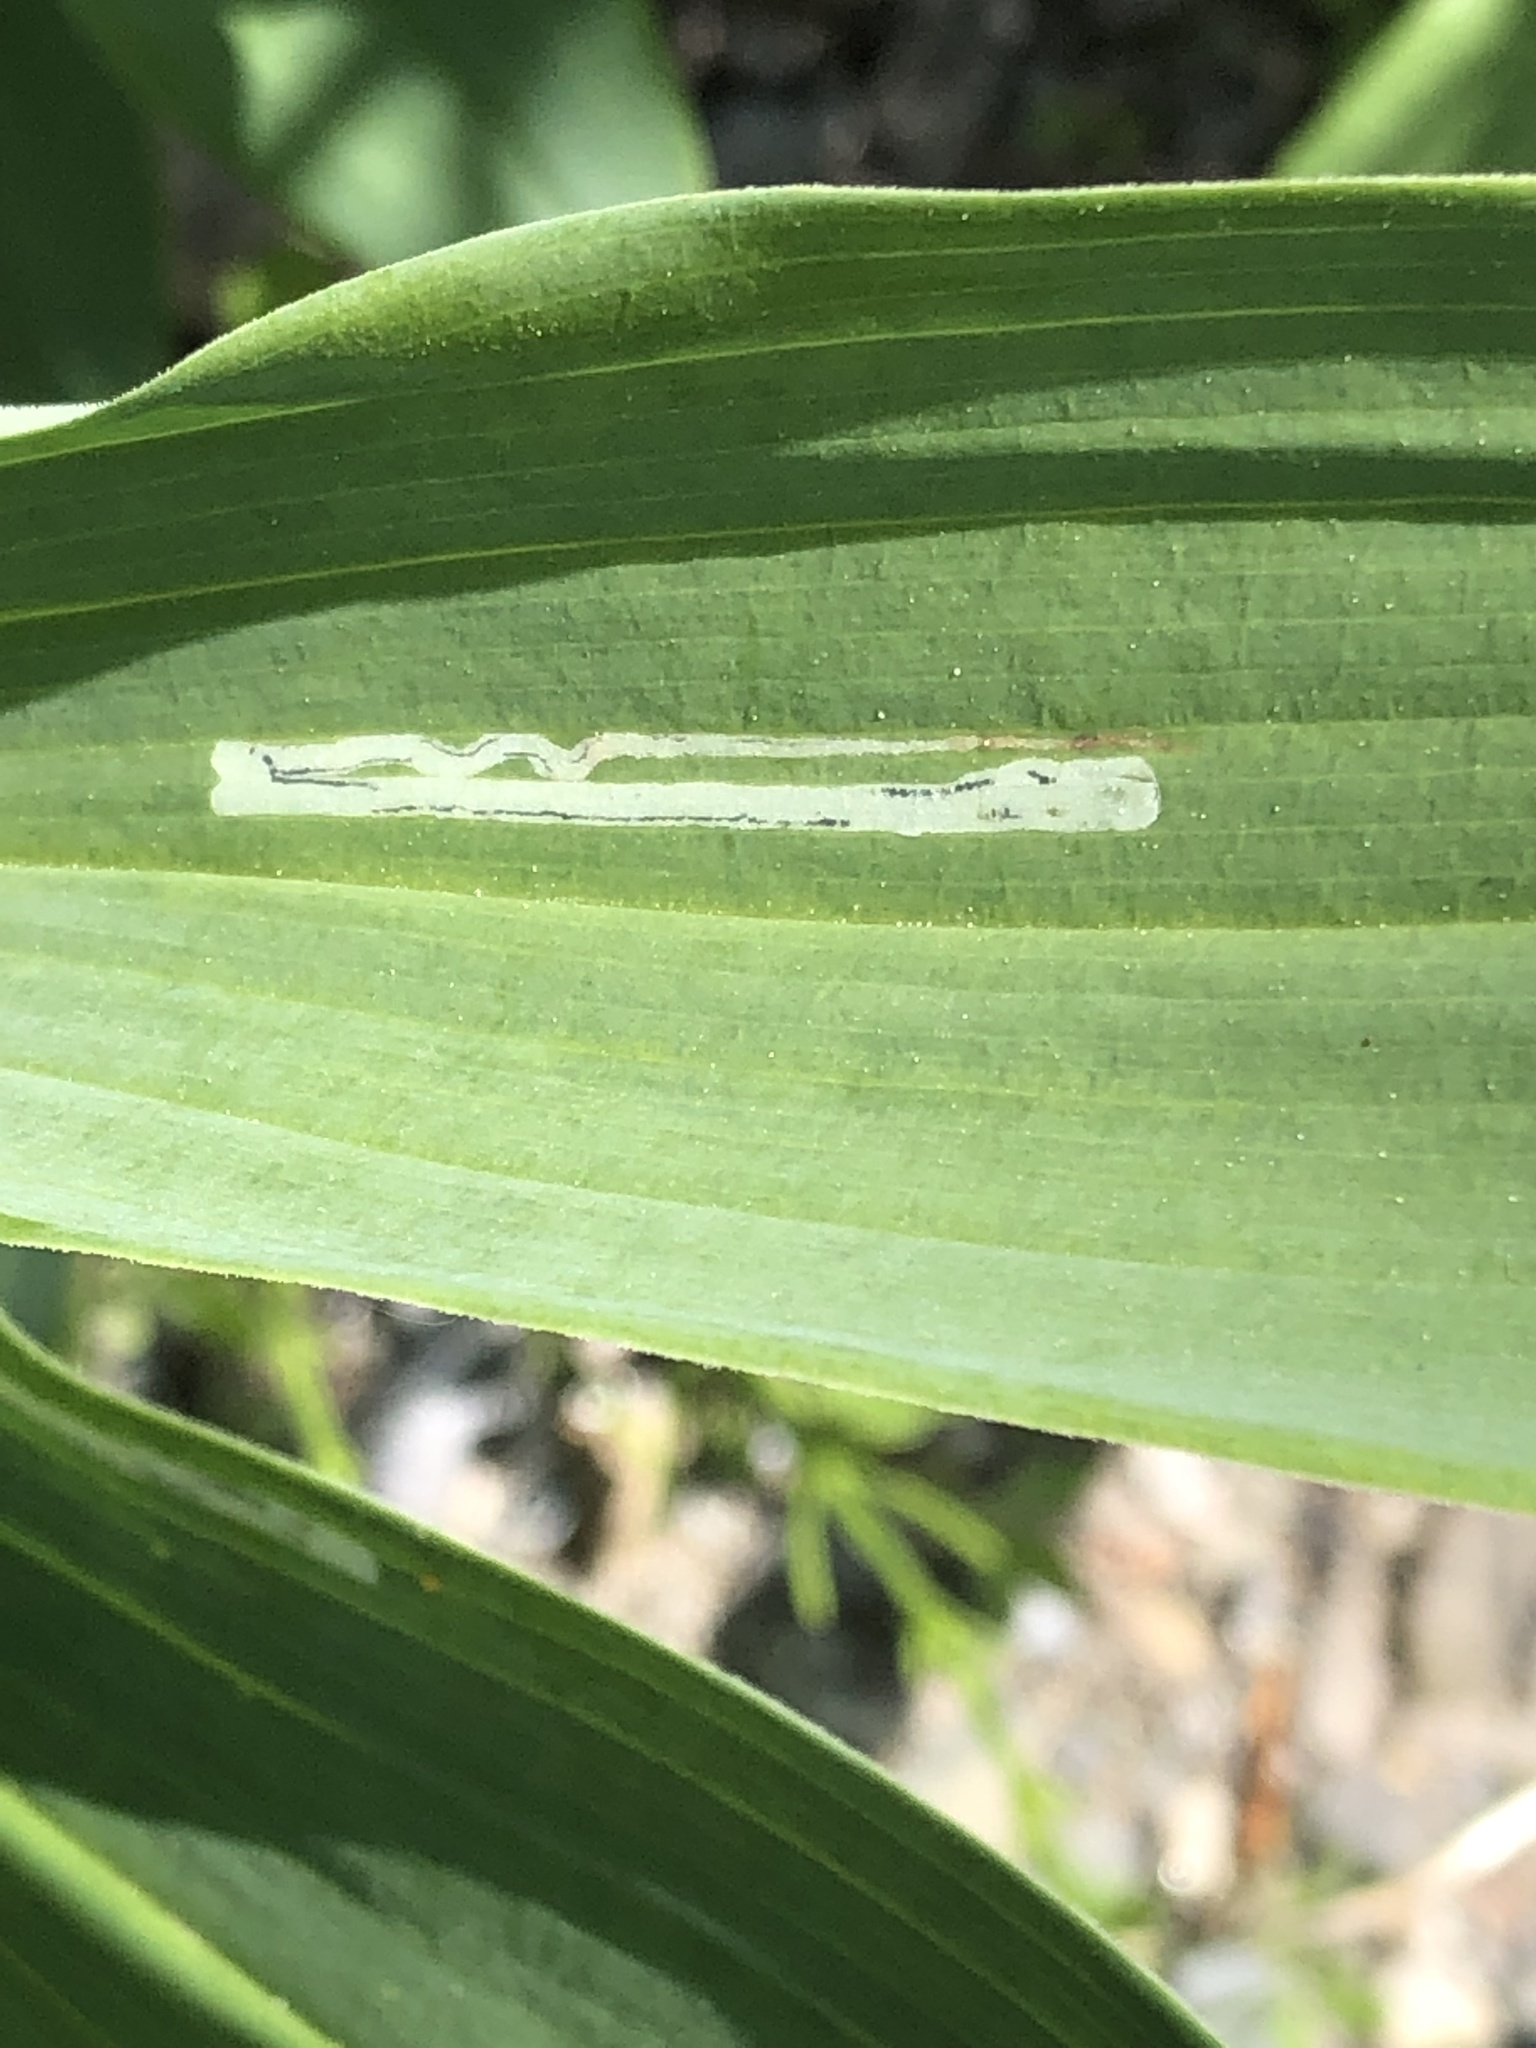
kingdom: Animalia
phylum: Arthropoda
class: Insecta
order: Diptera
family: Agromyzidae
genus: Liriomyza
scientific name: Liriomyza smilacinae
